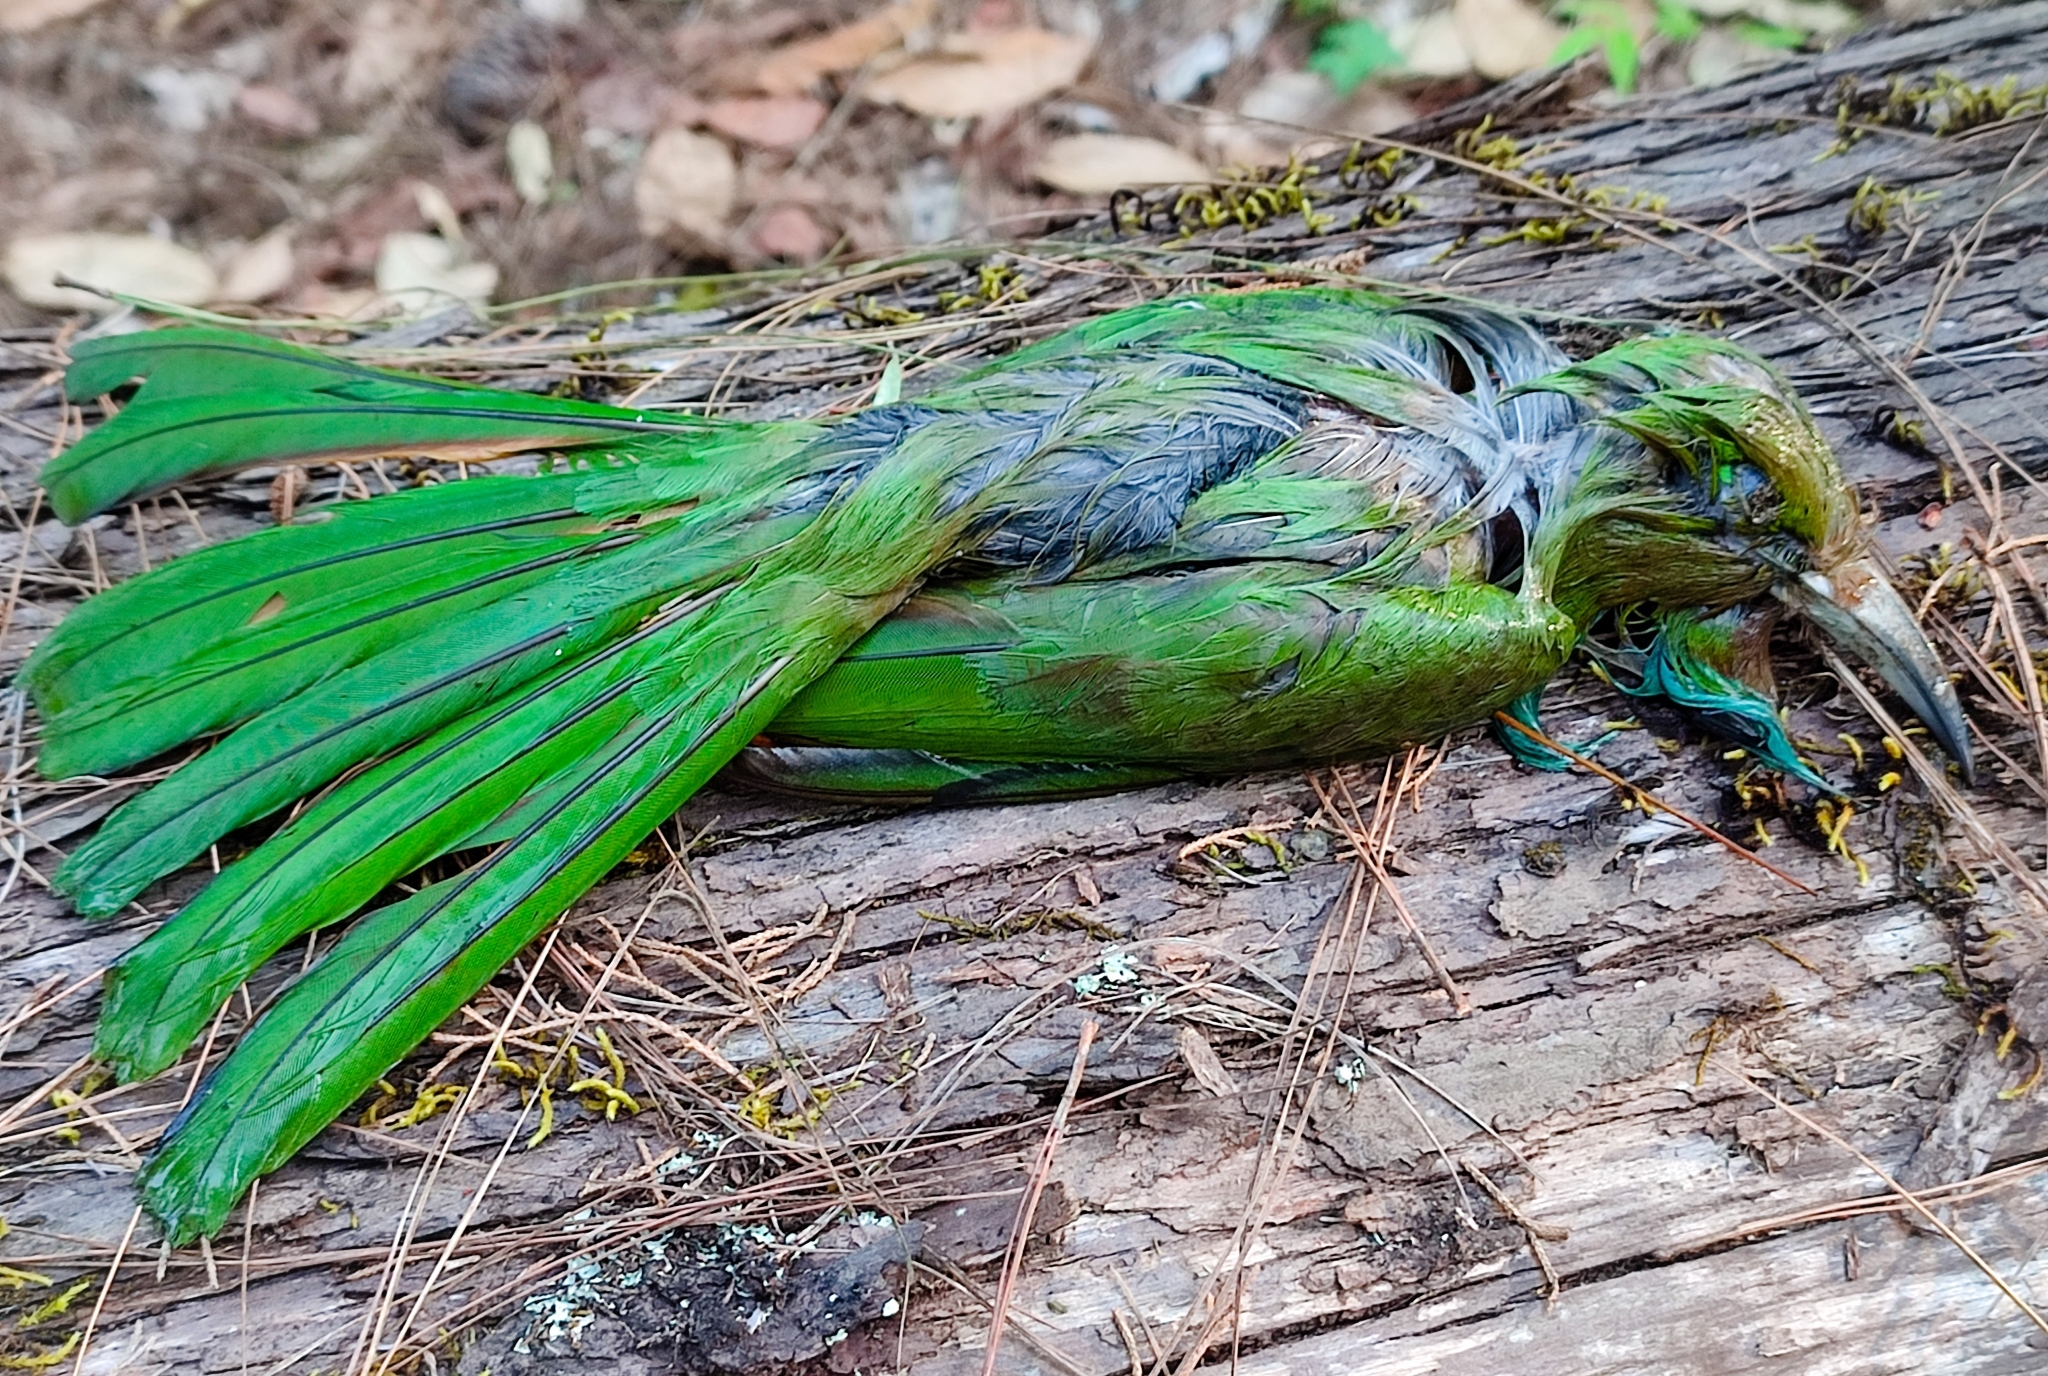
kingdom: Animalia
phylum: Chordata
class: Aves
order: Coraciiformes
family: Meropidae
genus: Nyctyornis
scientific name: Nyctyornis athertoni
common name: Blue-bearded bee-eater
